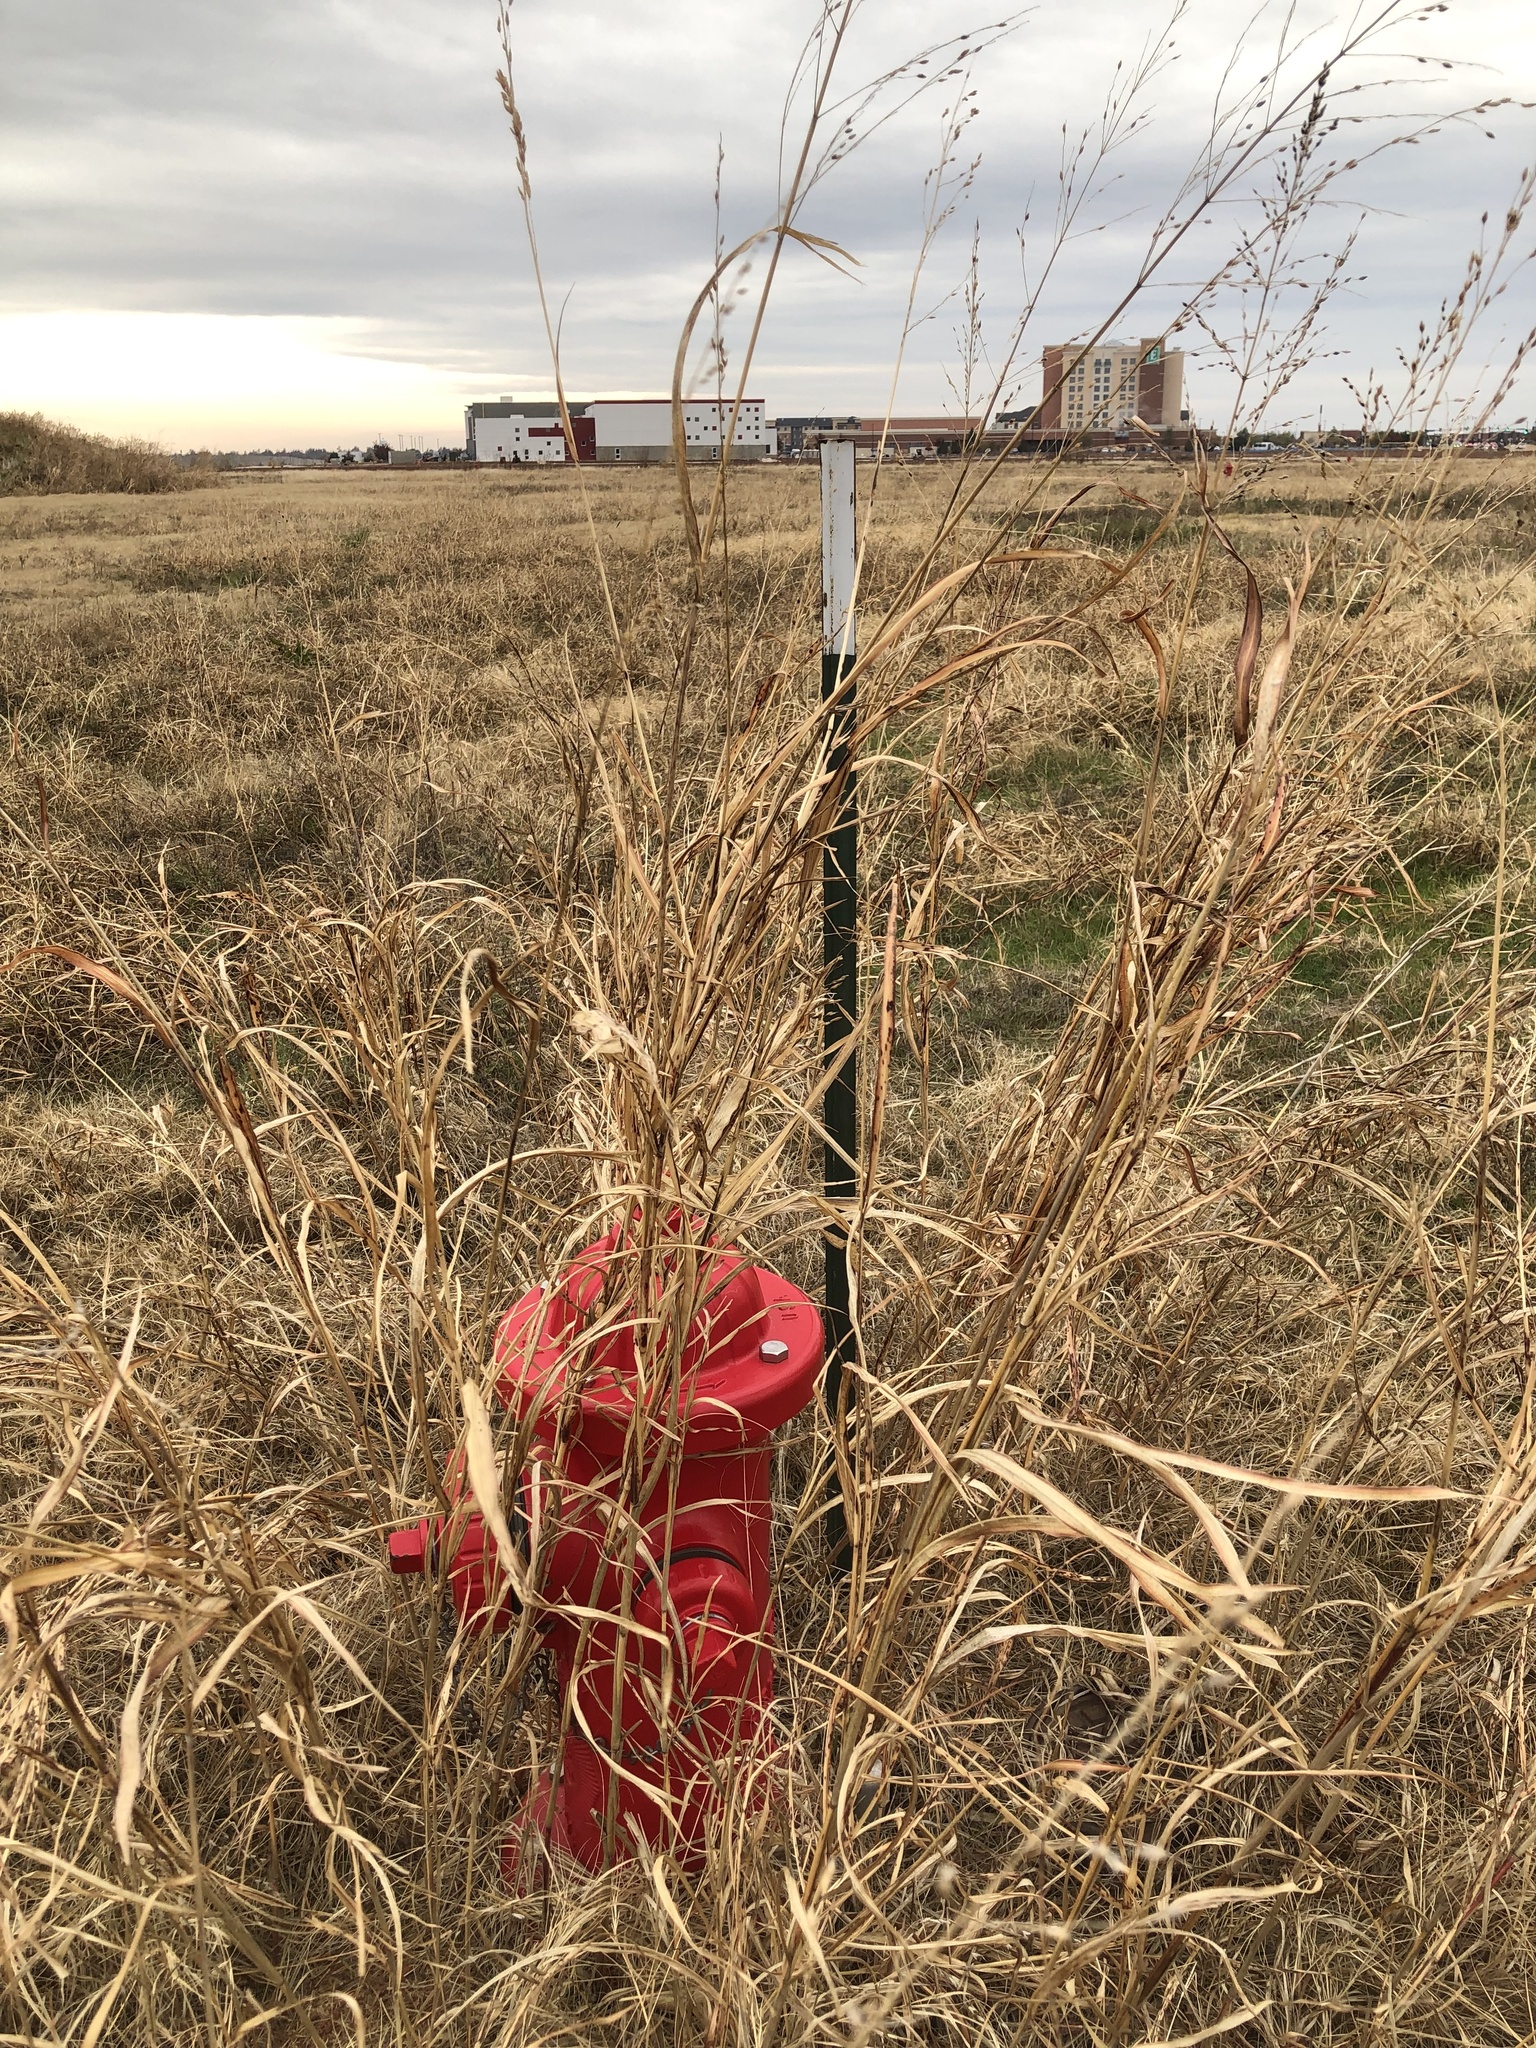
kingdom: Plantae
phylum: Tracheophyta
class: Liliopsida
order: Poales
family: Poaceae
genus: Sorghum
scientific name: Sorghum halepense
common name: Johnson-grass
